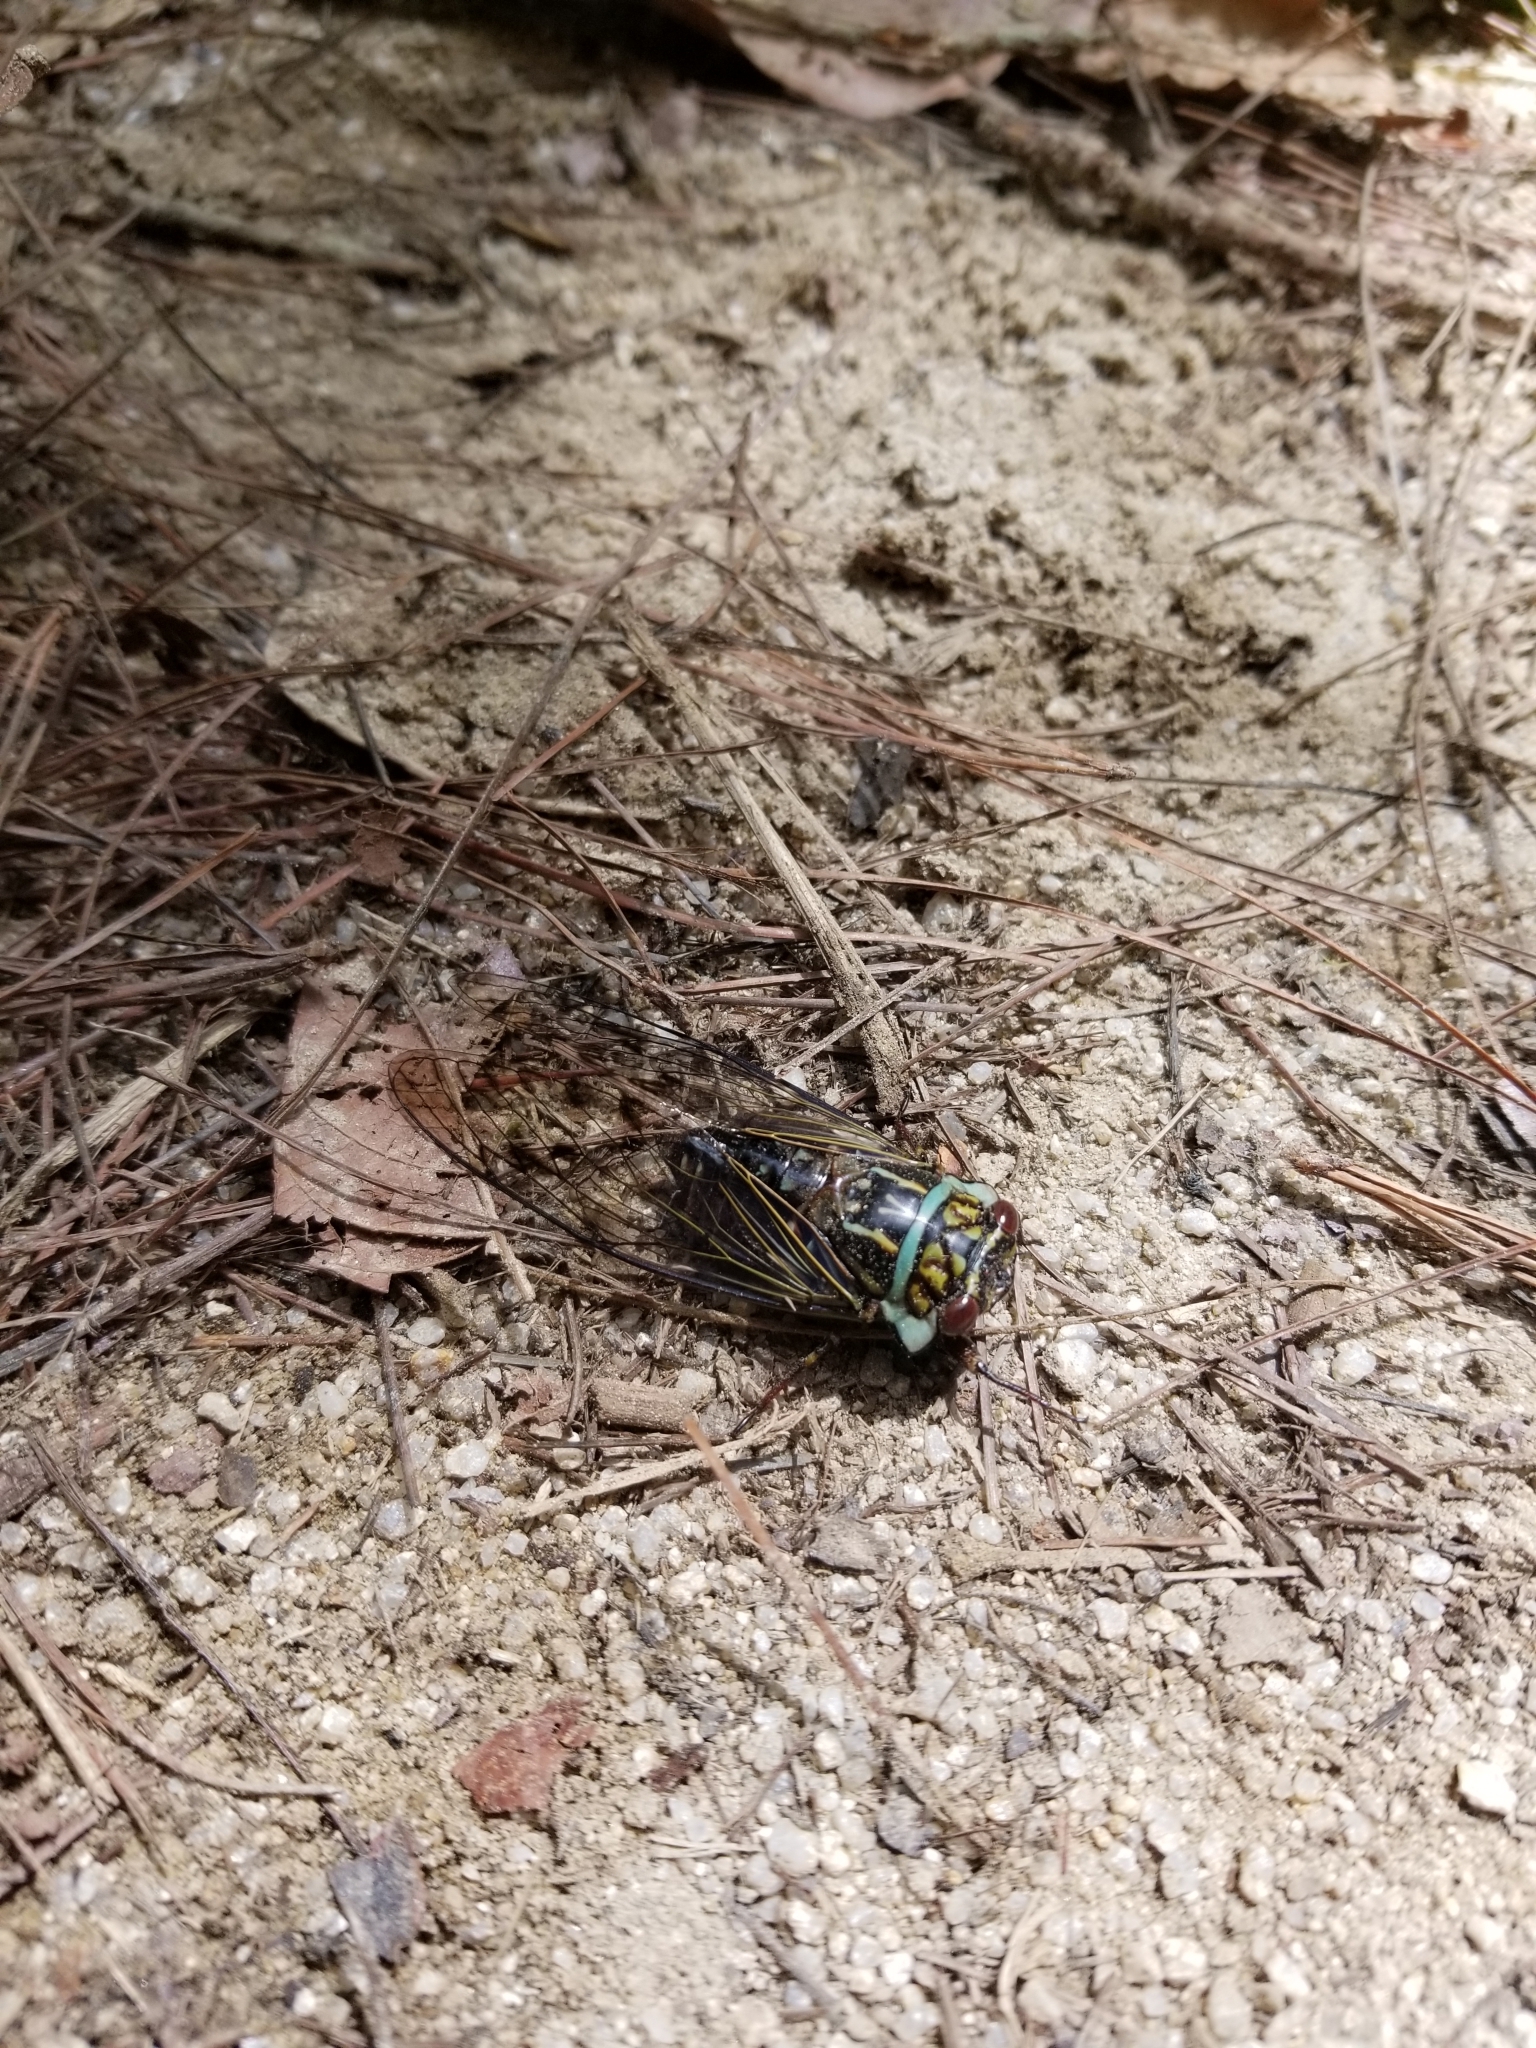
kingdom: Animalia
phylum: Arthropoda
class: Insecta
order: Hemiptera
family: Cicadidae
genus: Odopoea
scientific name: Odopoea cariboea
